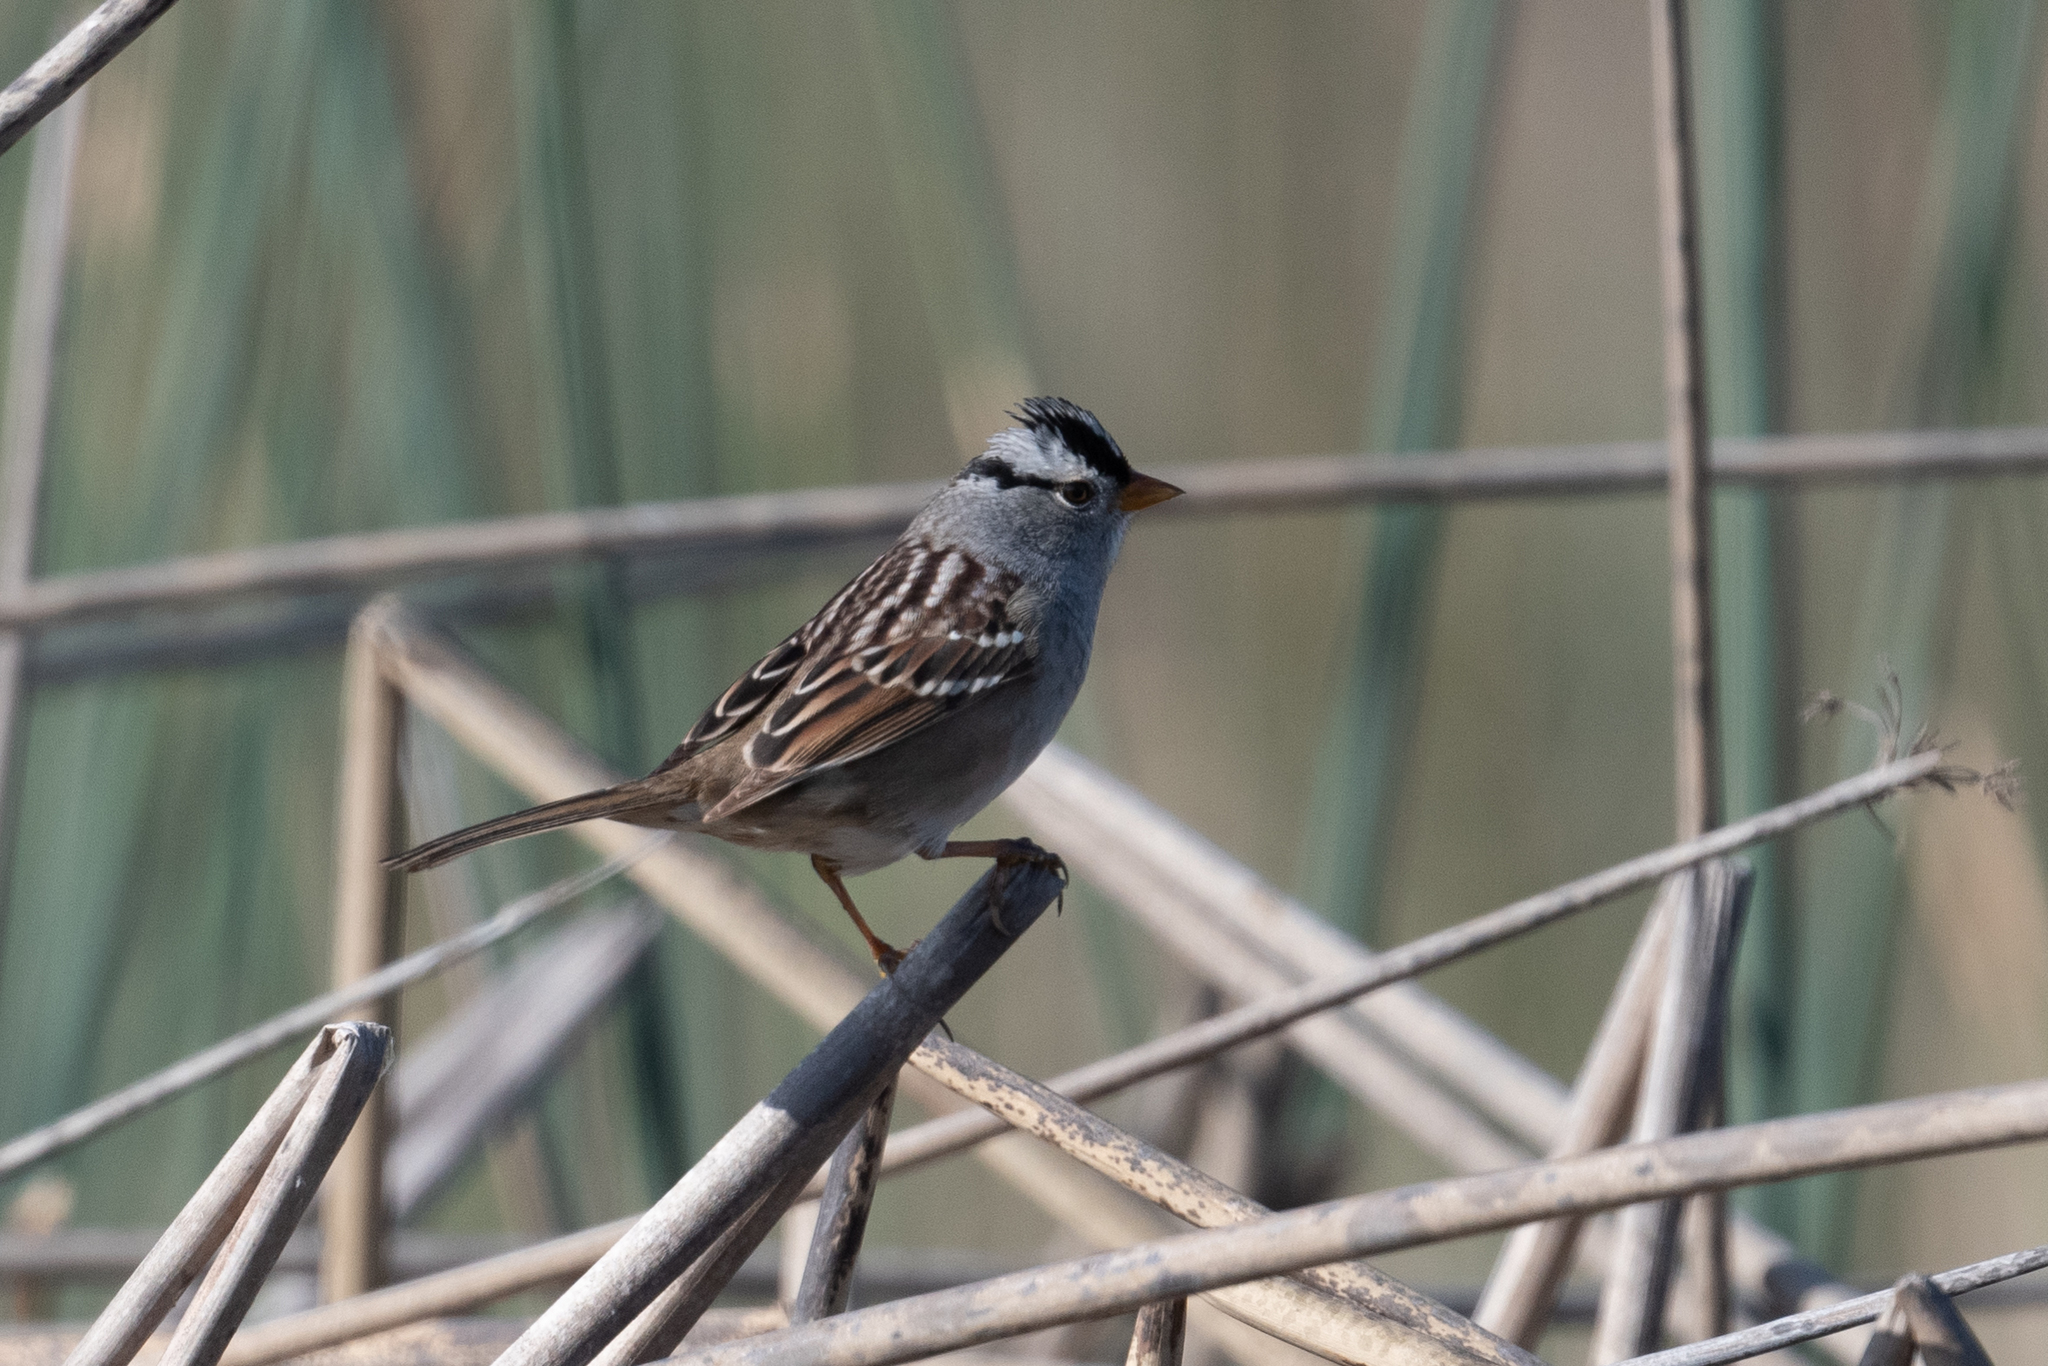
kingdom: Animalia
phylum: Chordata
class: Aves
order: Passeriformes
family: Passerellidae
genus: Zonotrichia
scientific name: Zonotrichia leucophrys
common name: White-crowned sparrow
